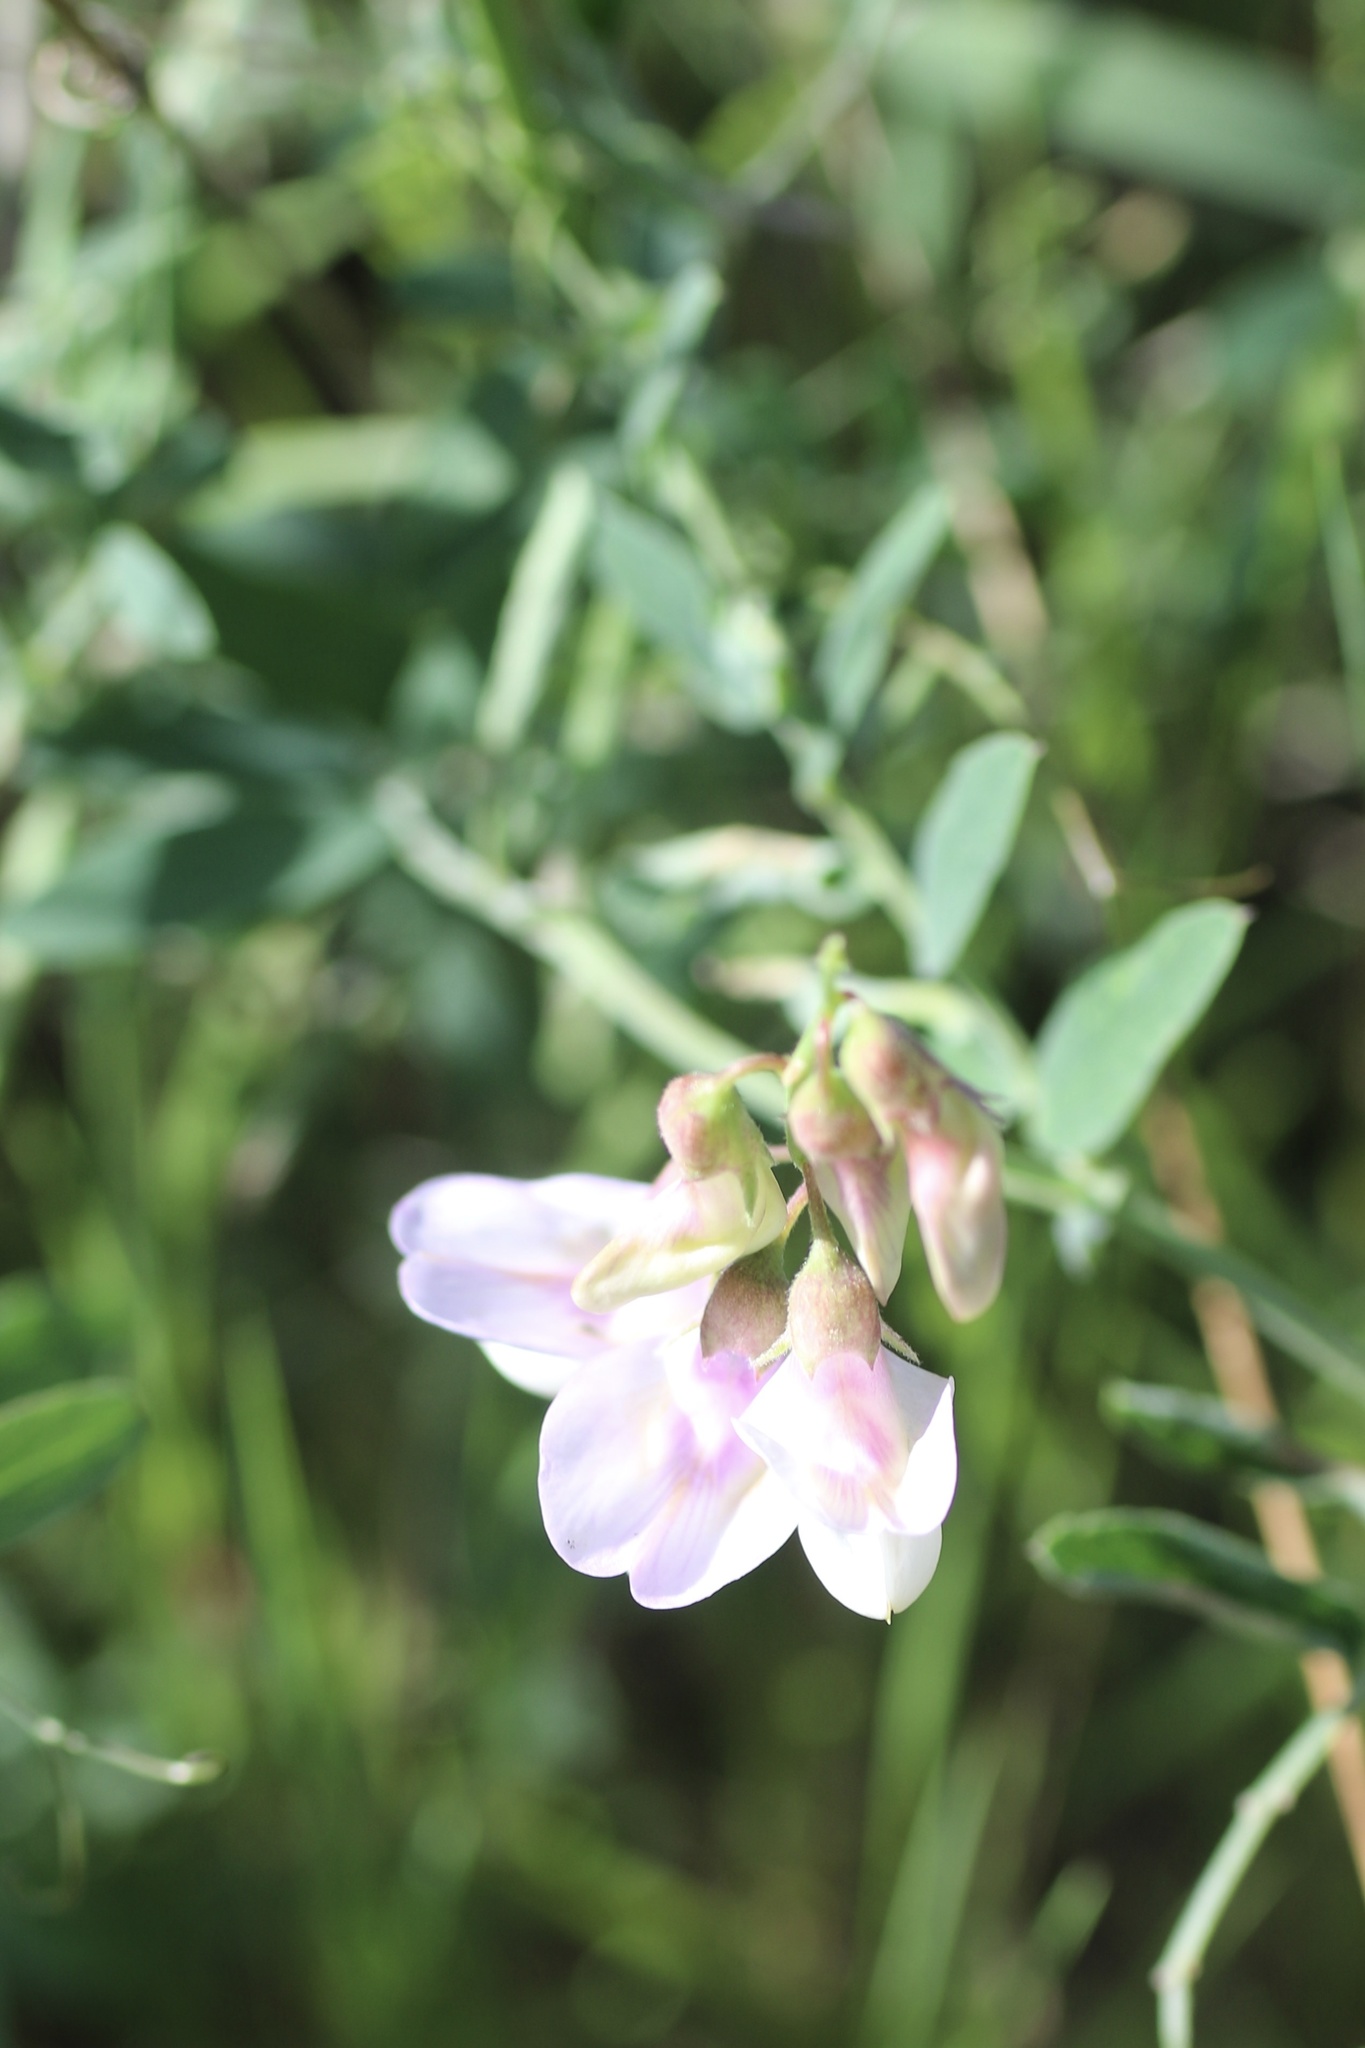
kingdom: Plantae
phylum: Tracheophyta
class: Magnoliopsida
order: Fabales
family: Fabaceae
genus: Lathyrus
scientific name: Lathyrus vestitus
